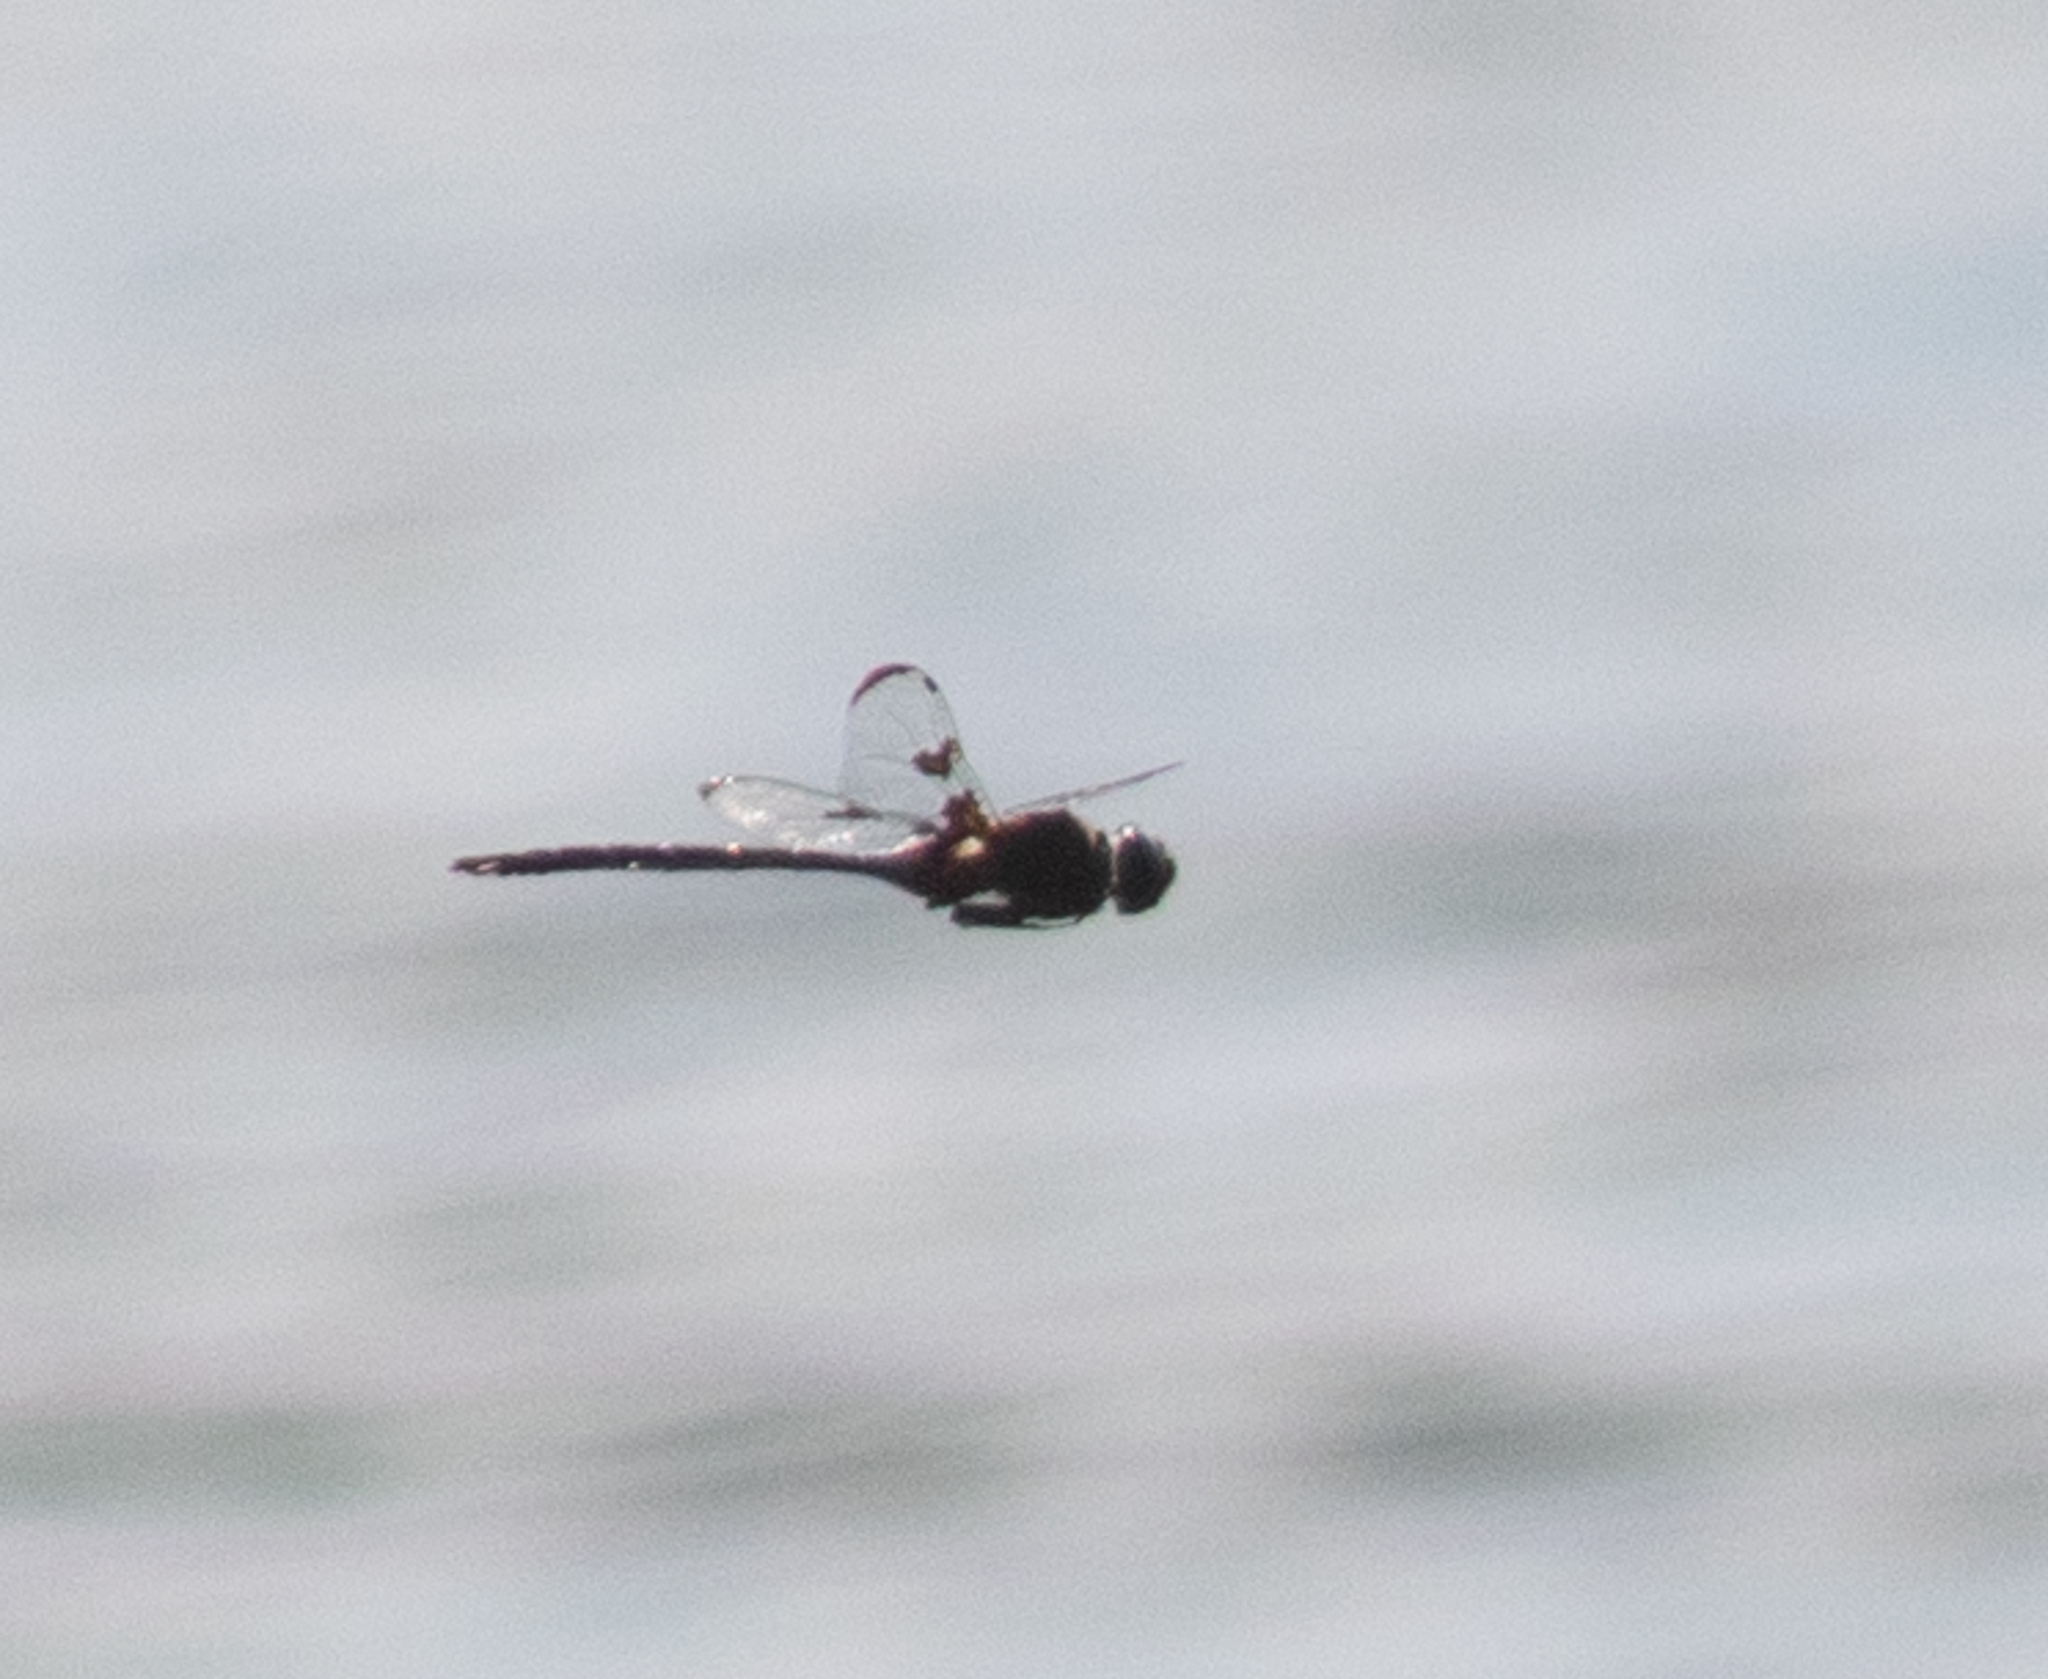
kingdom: Animalia
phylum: Arthropoda
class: Insecta
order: Odonata
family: Corduliidae
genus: Epitheca
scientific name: Epitheca princeps
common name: Prince baskettail
